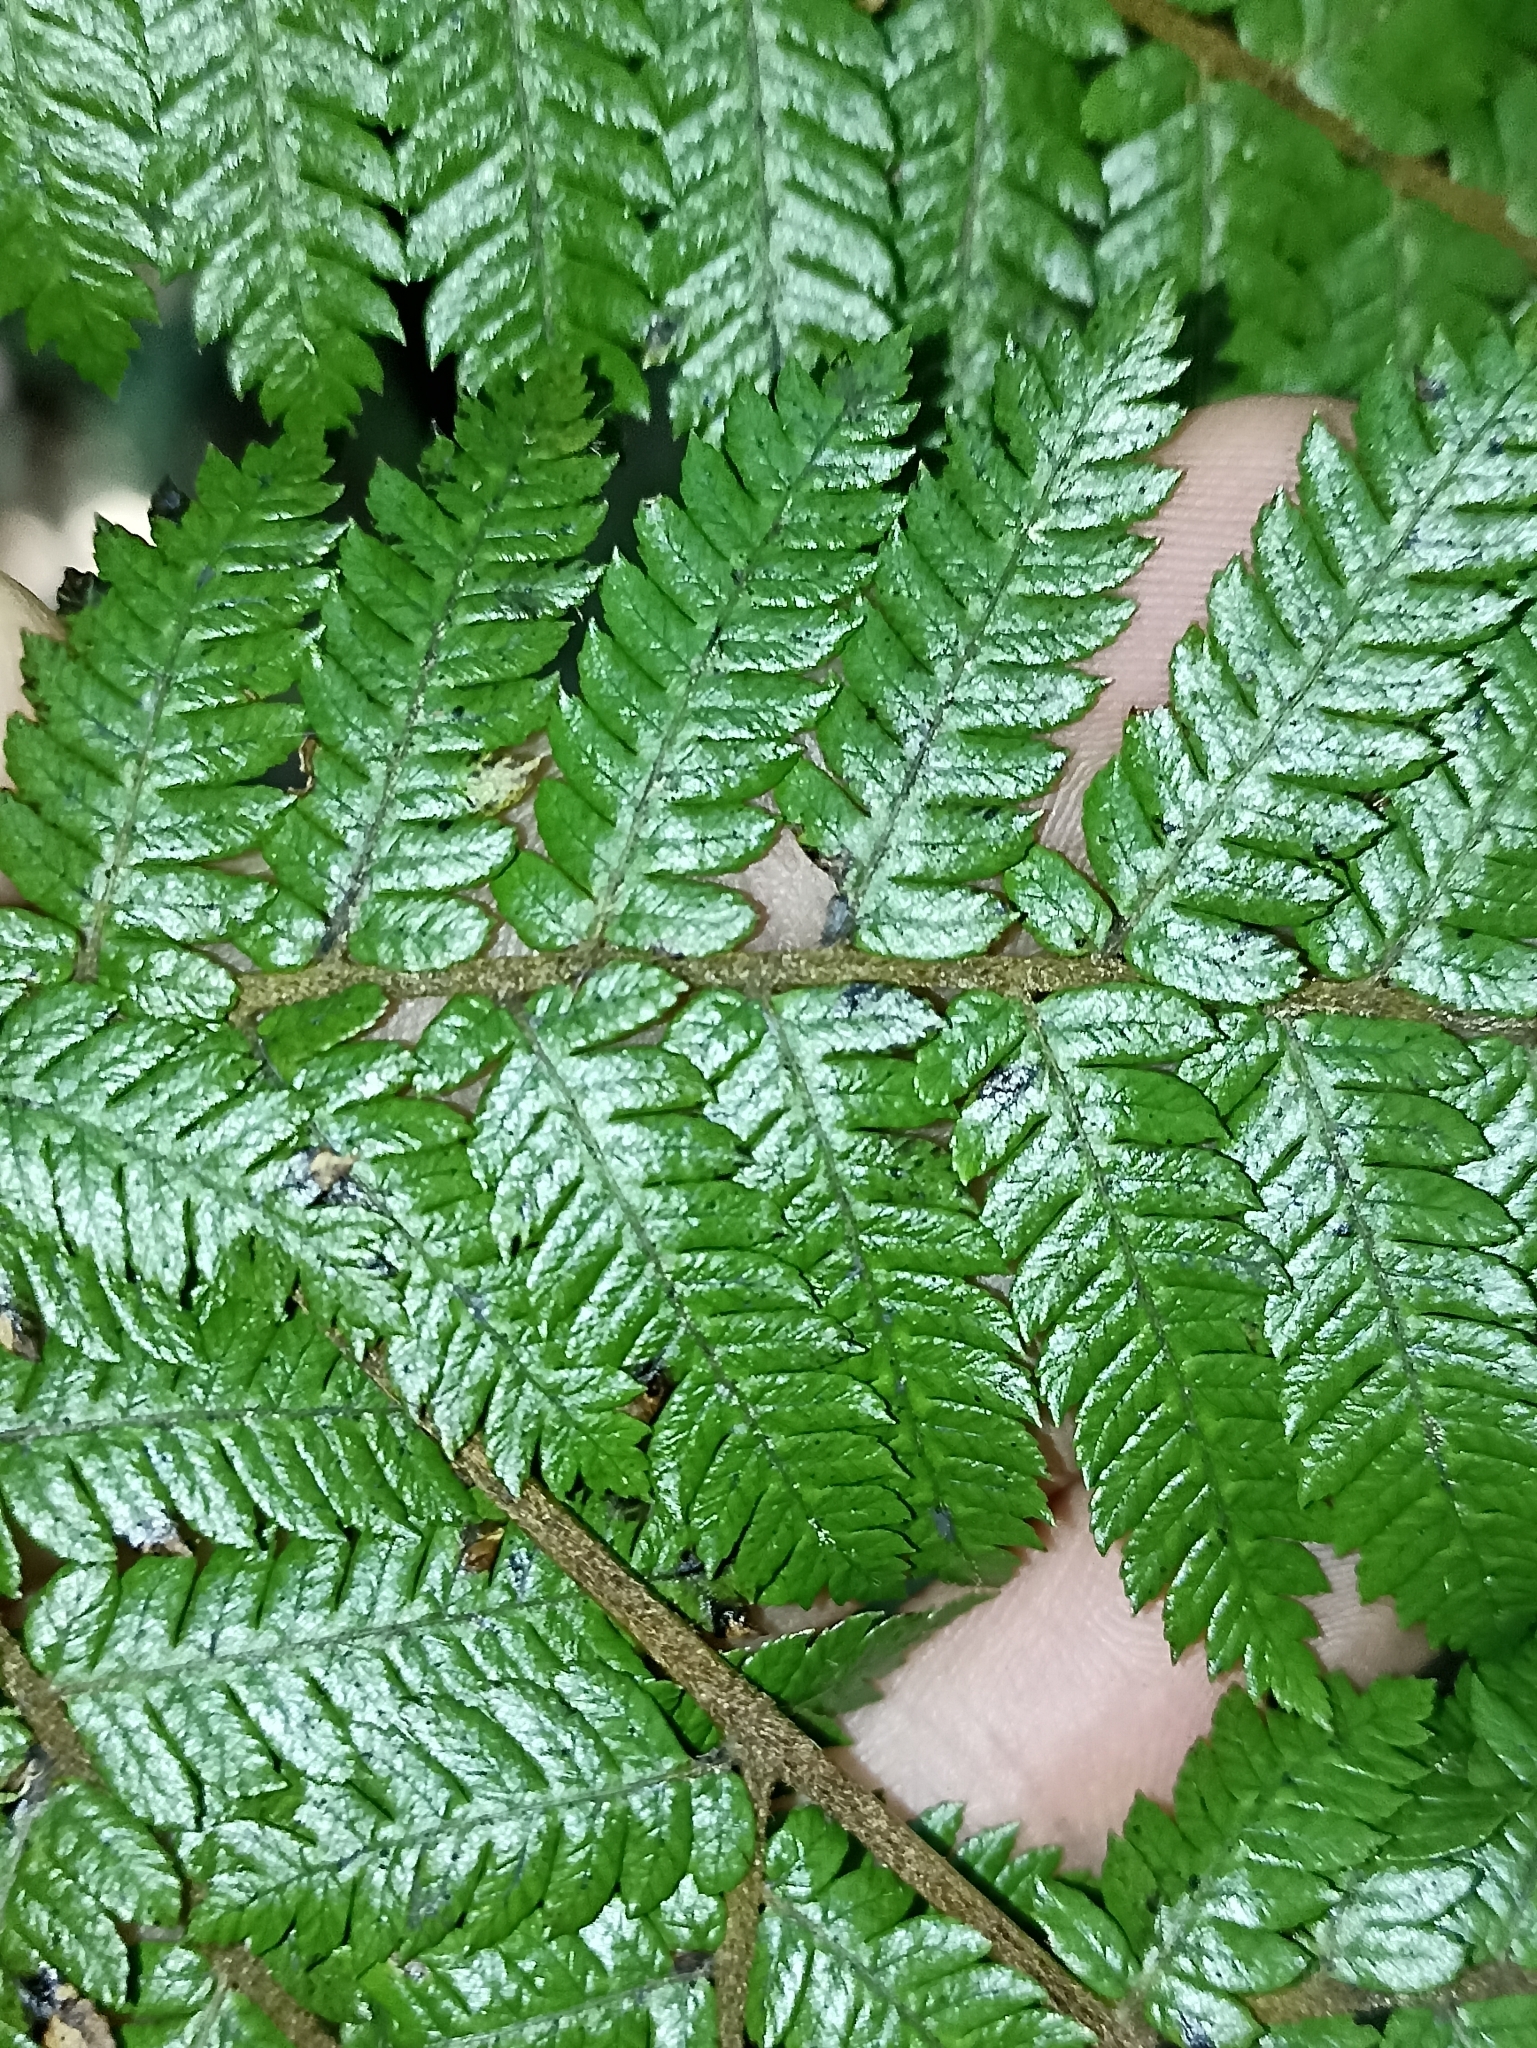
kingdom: Plantae
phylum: Tracheophyta
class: Polypodiopsida
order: Cyatheales
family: Cyatheaceae
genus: Alsophila
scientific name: Alsophila smithii
